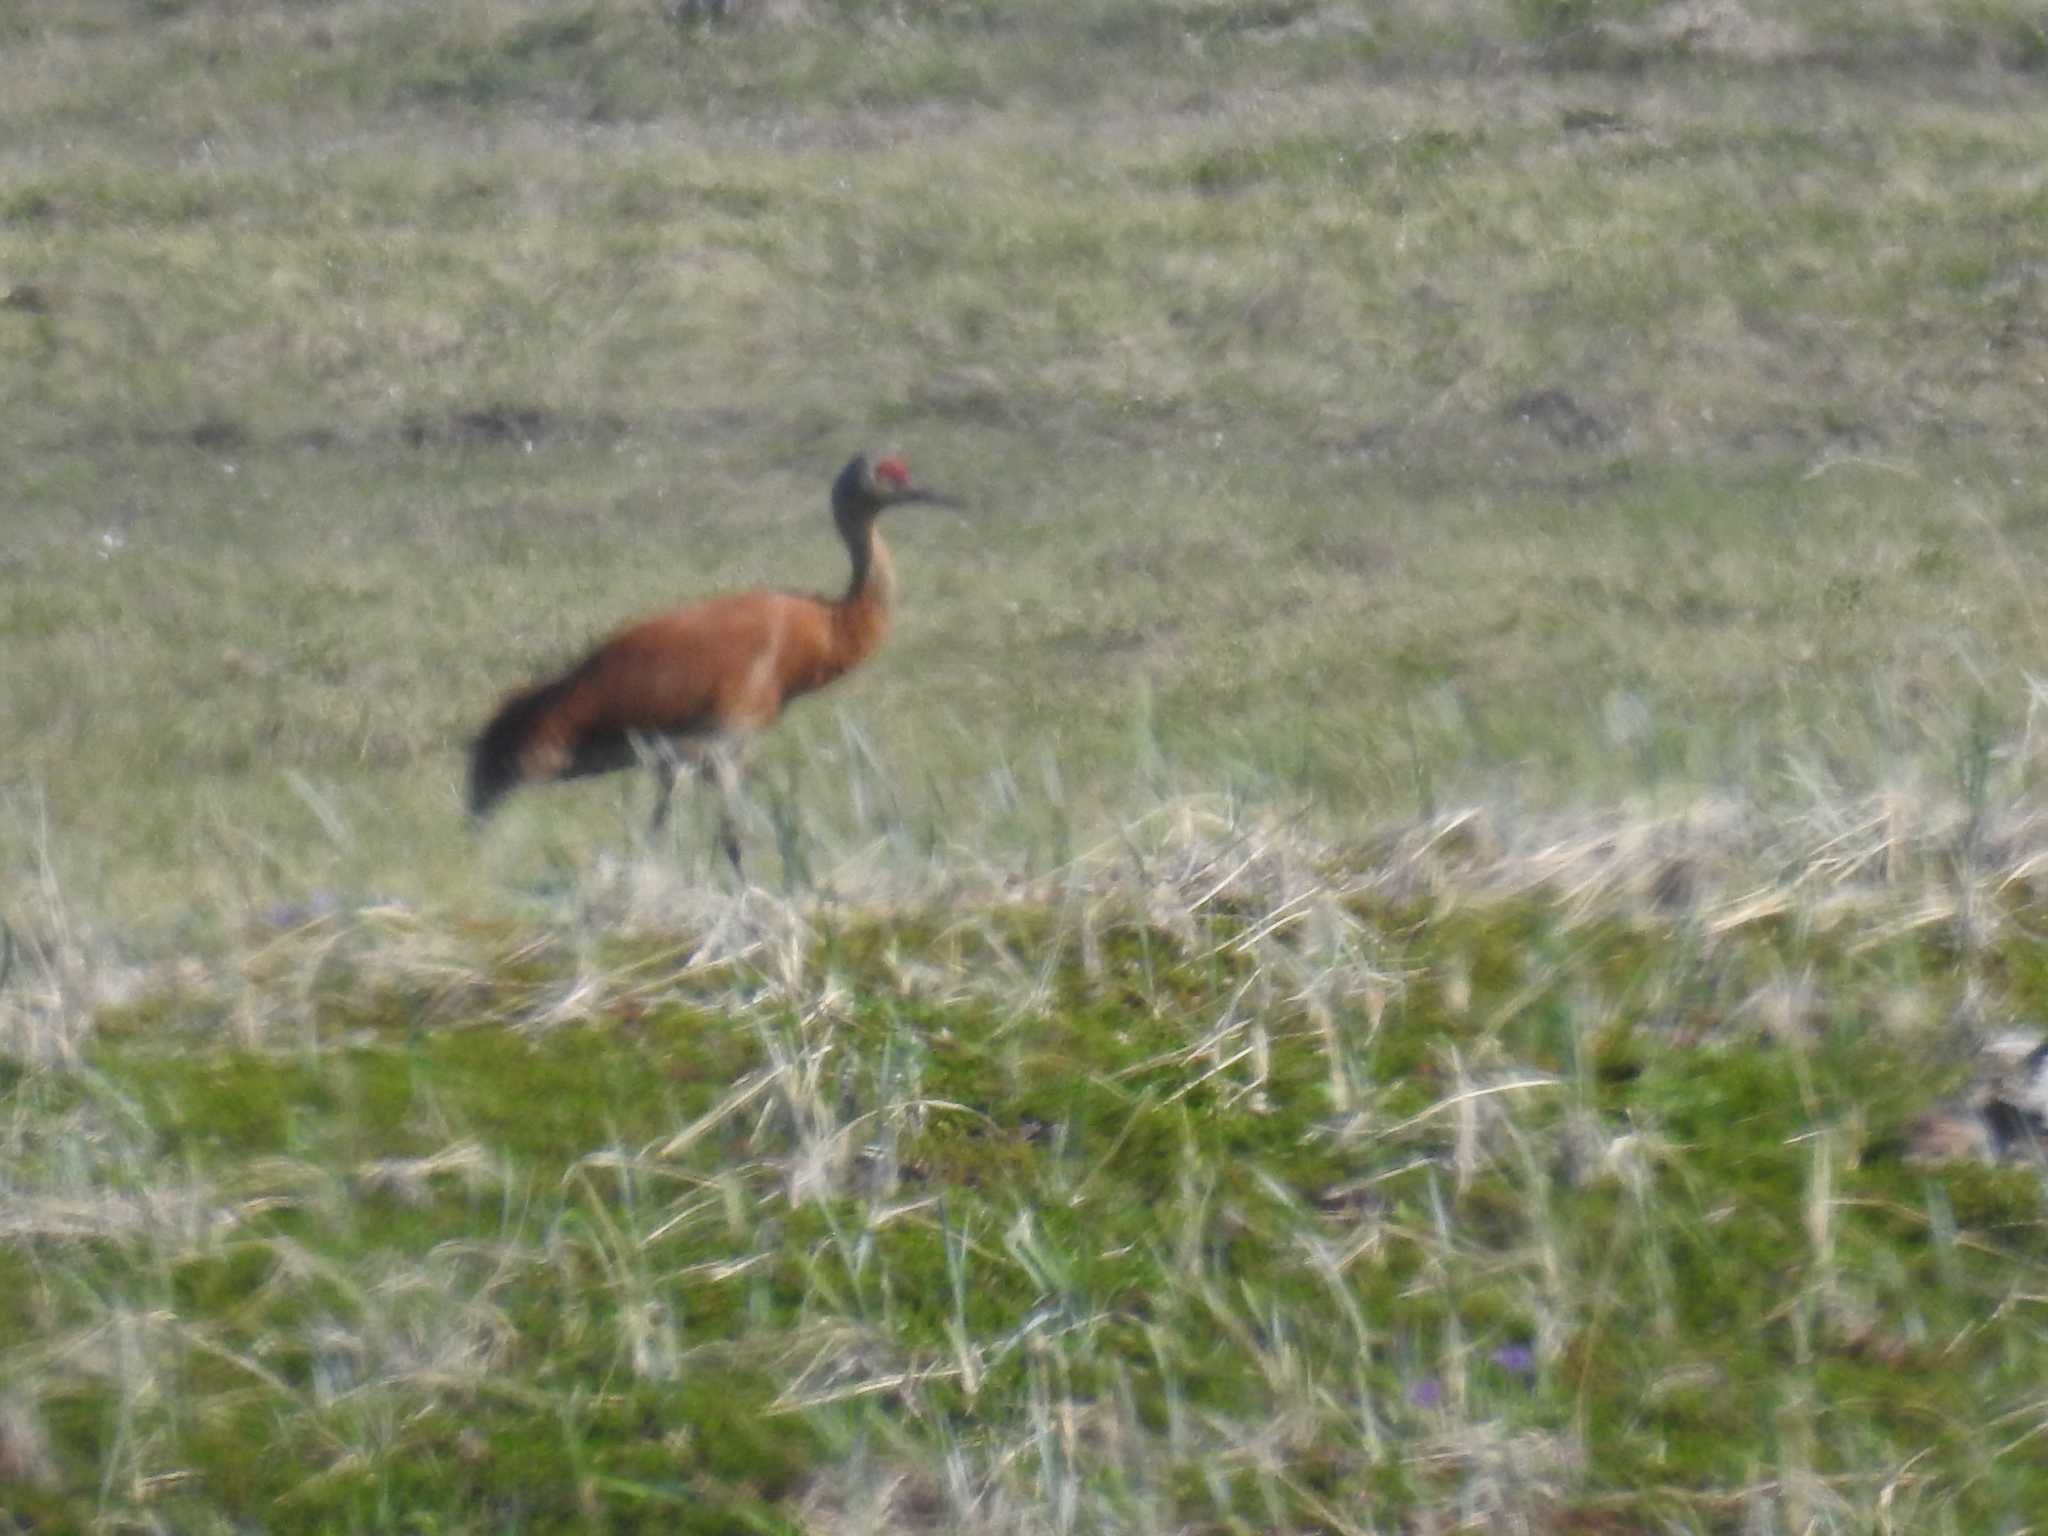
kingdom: Animalia
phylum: Chordata
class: Aves
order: Gruiformes
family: Gruidae
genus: Grus
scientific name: Grus canadensis
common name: Sandhill crane
